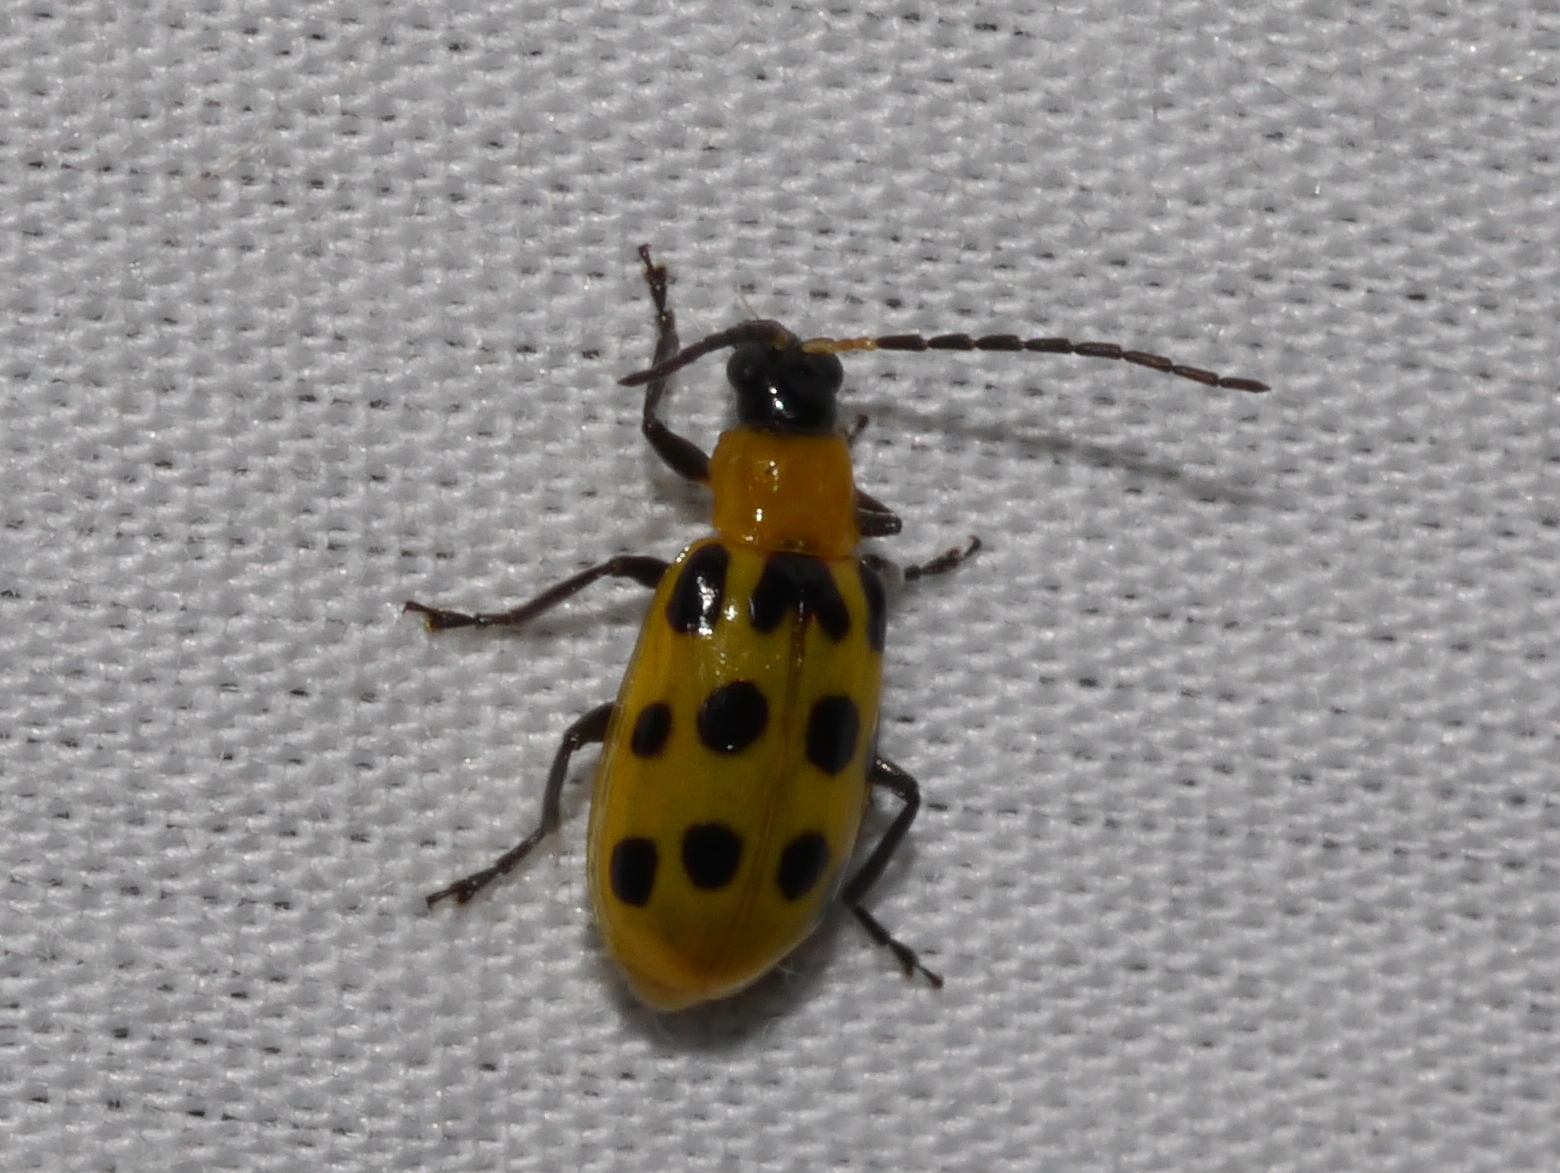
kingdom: Animalia
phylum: Arthropoda
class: Insecta
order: Coleoptera
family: Chrysomelidae
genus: Diabrotica
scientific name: Diabrotica undecimpunctata
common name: Spotted cucumber beetle
